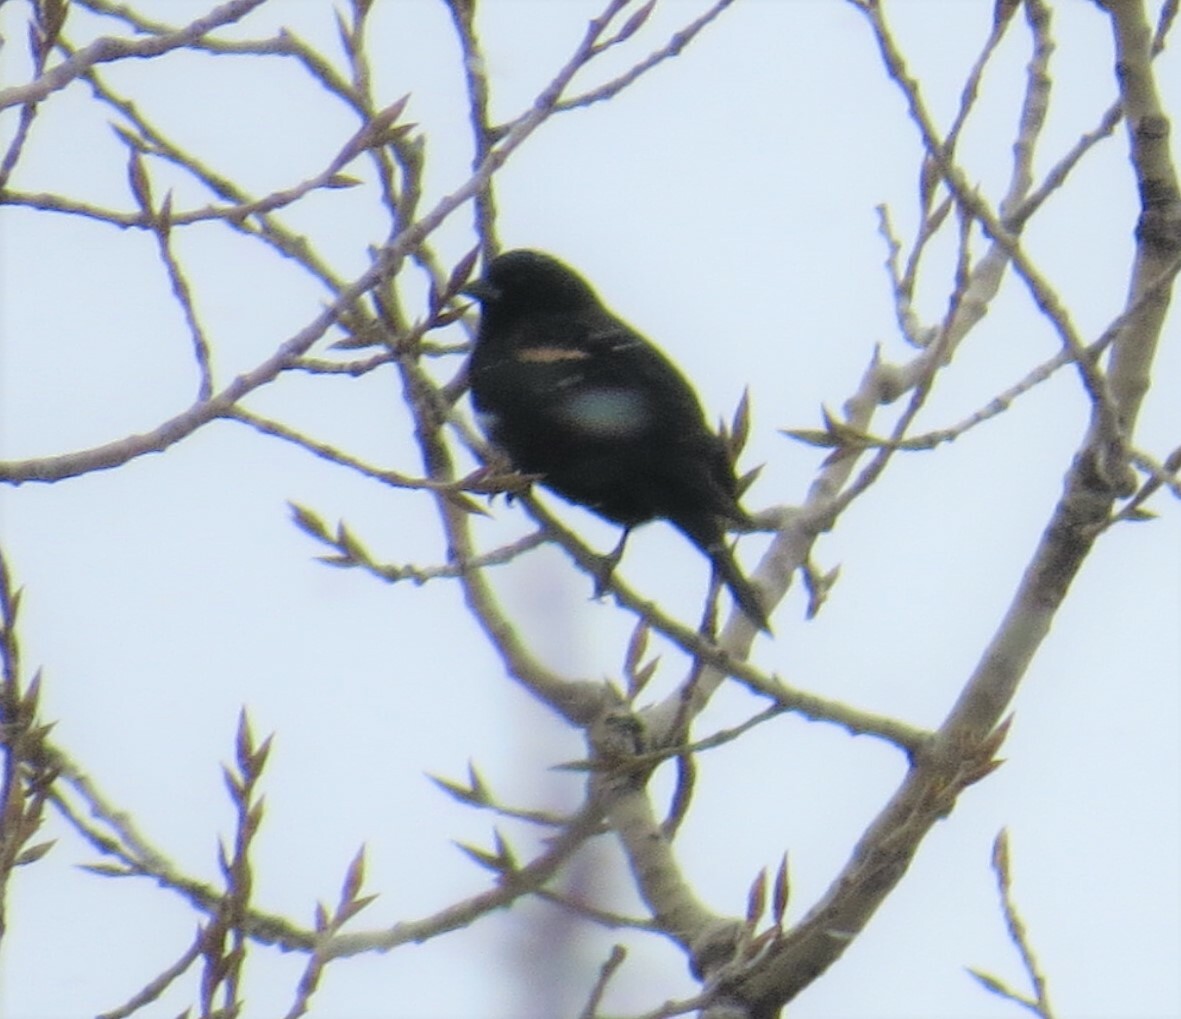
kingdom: Animalia
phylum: Chordata
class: Aves
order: Passeriformes
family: Icteridae
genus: Agelaius
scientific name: Agelaius phoeniceus
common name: Red-winged blackbird
